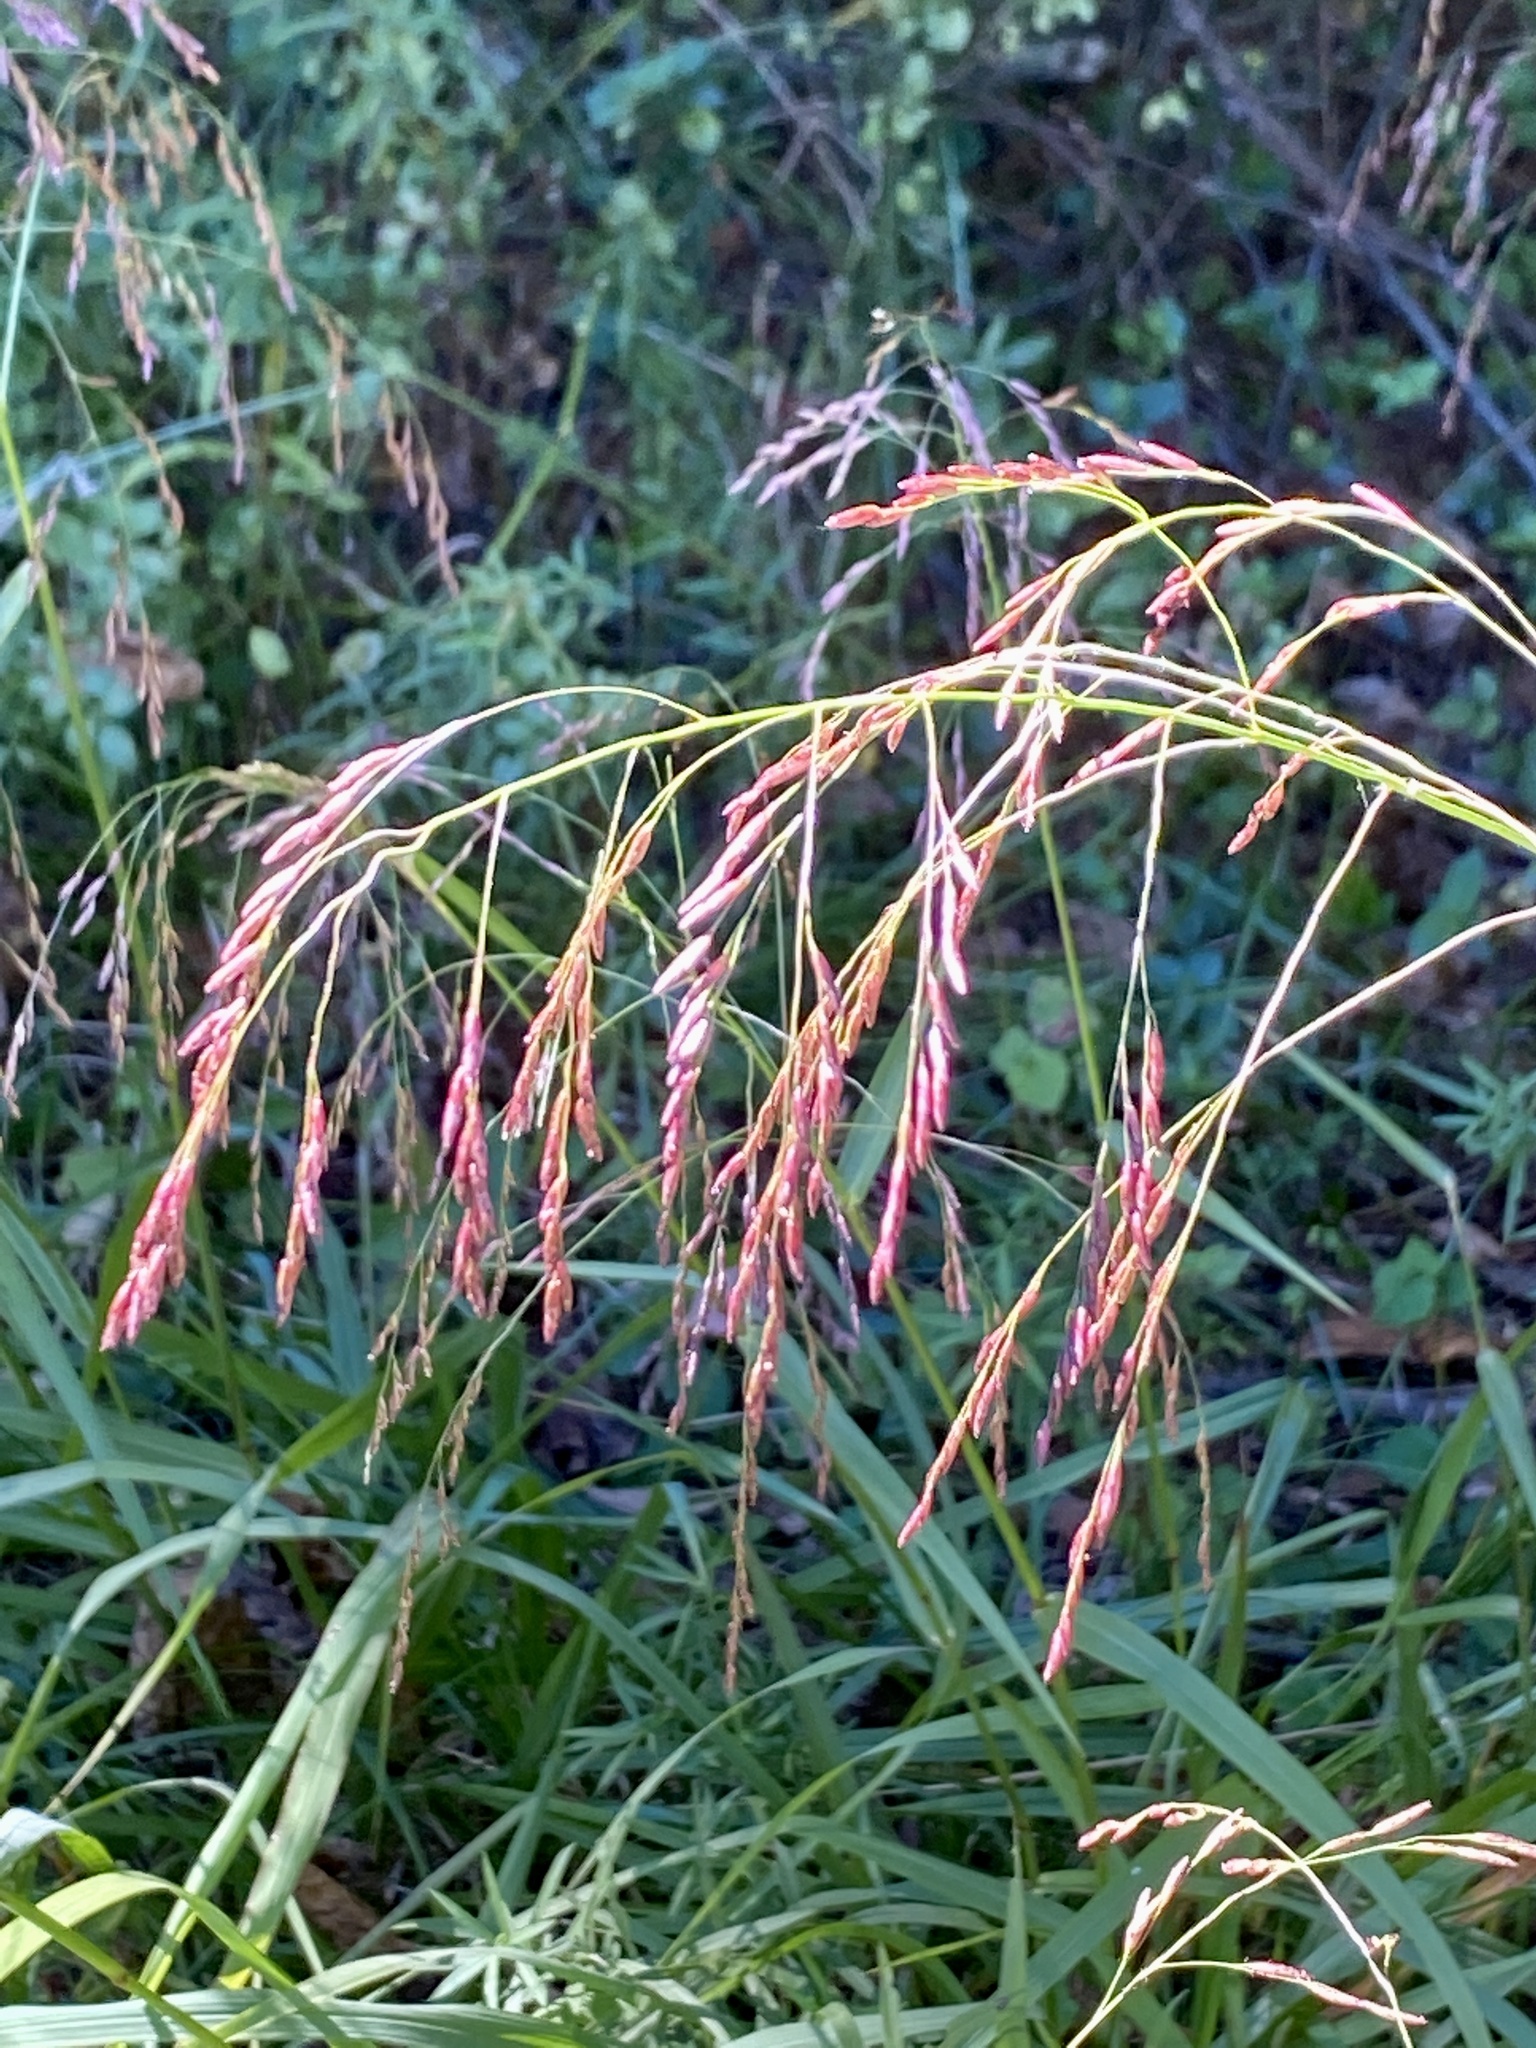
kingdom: Plantae
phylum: Tracheophyta
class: Liliopsida
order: Poales
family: Poaceae
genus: Tridens
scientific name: Tridens flavus
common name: Purpletop
